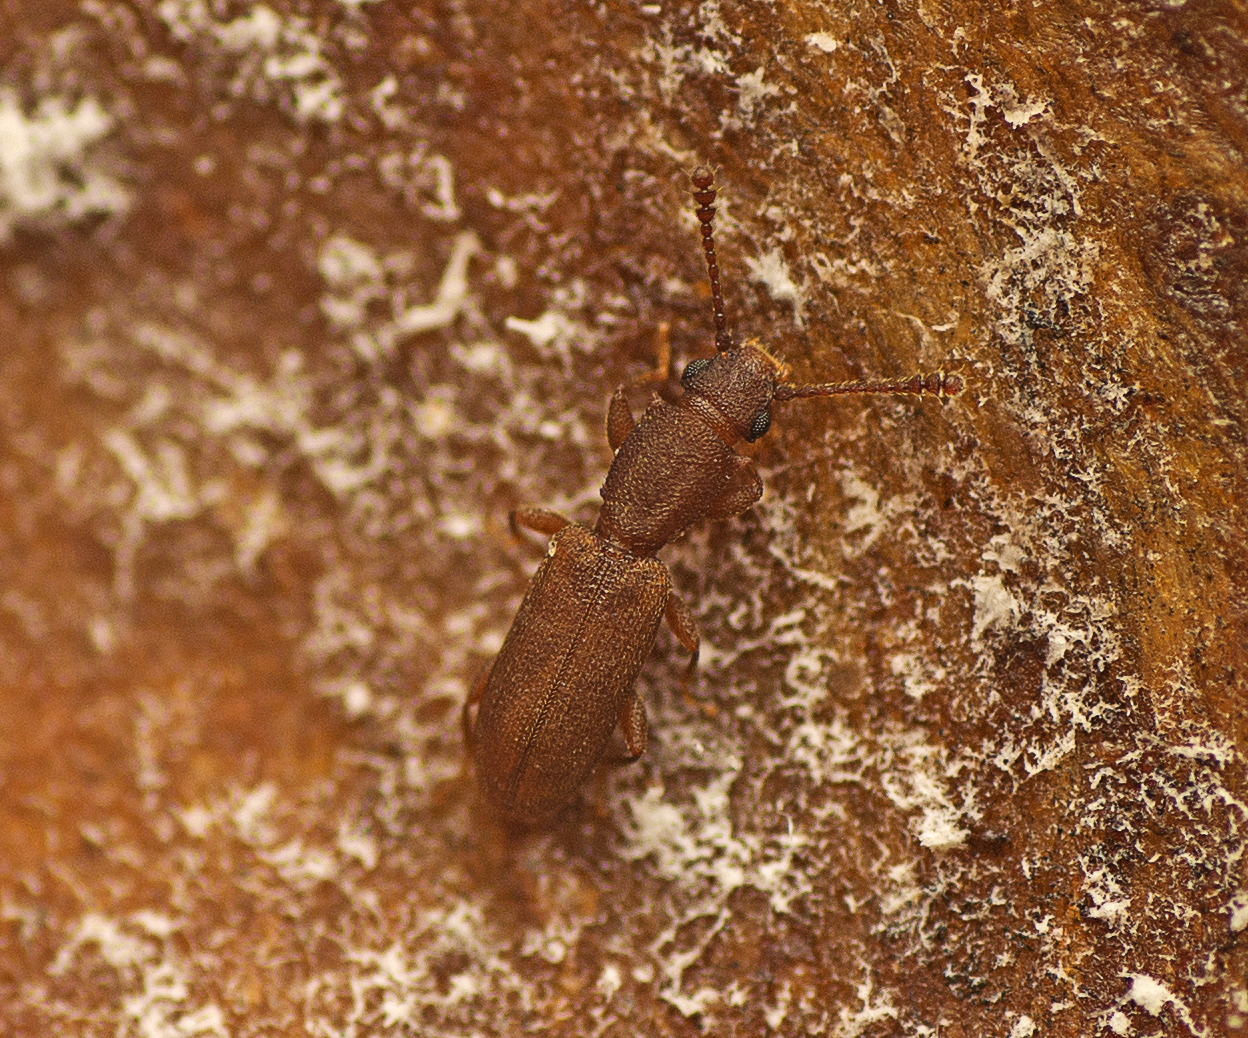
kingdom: Animalia
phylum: Arthropoda
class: Insecta
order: Coleoptera
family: Silvanidae
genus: Silvanus
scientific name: Silvanus
